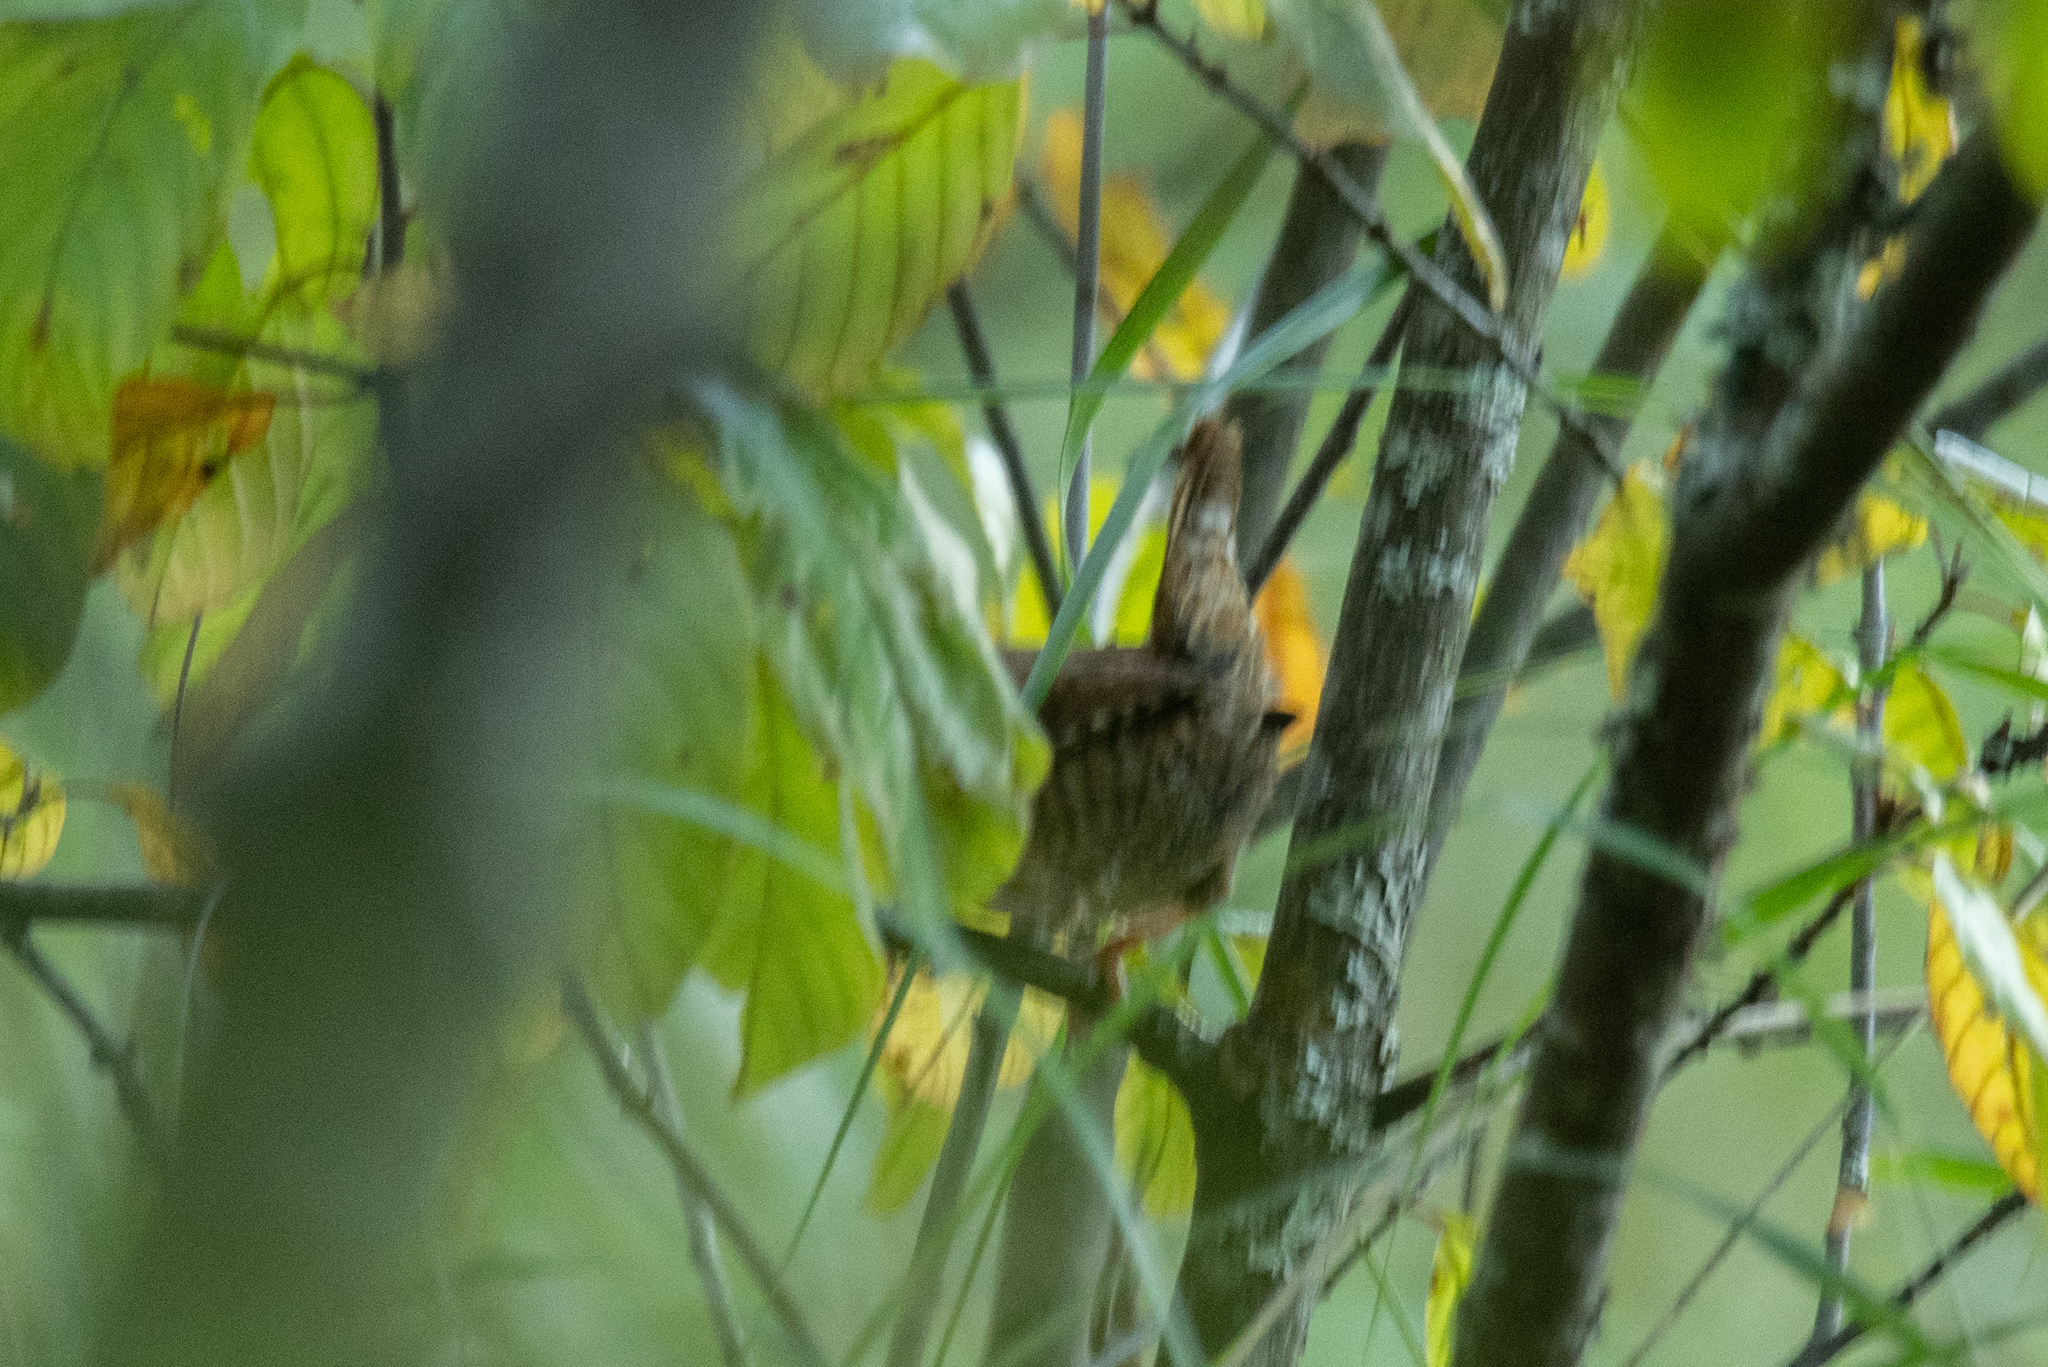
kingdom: Animalia
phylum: Chordata
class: Aves
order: Passeriformes
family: Troglodytidae
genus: Troglodytes
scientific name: Troglodytes troglodytes
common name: Eurasian wren
